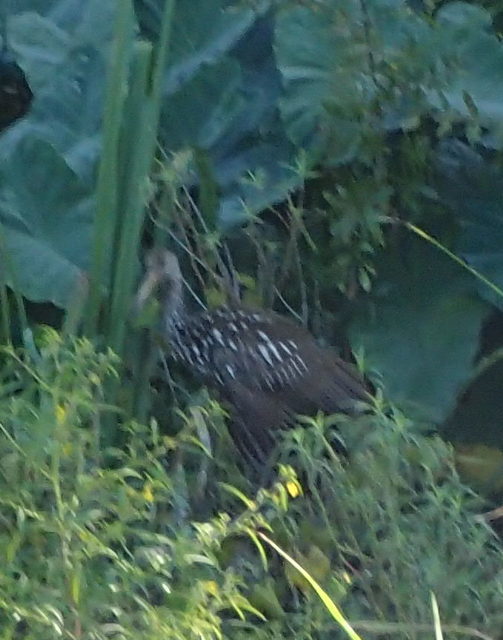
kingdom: Animalia
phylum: Chordata
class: Aves
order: Gruiformes
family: Aramidae
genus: Aramus
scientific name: Aramus guarauna
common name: Limpkin
